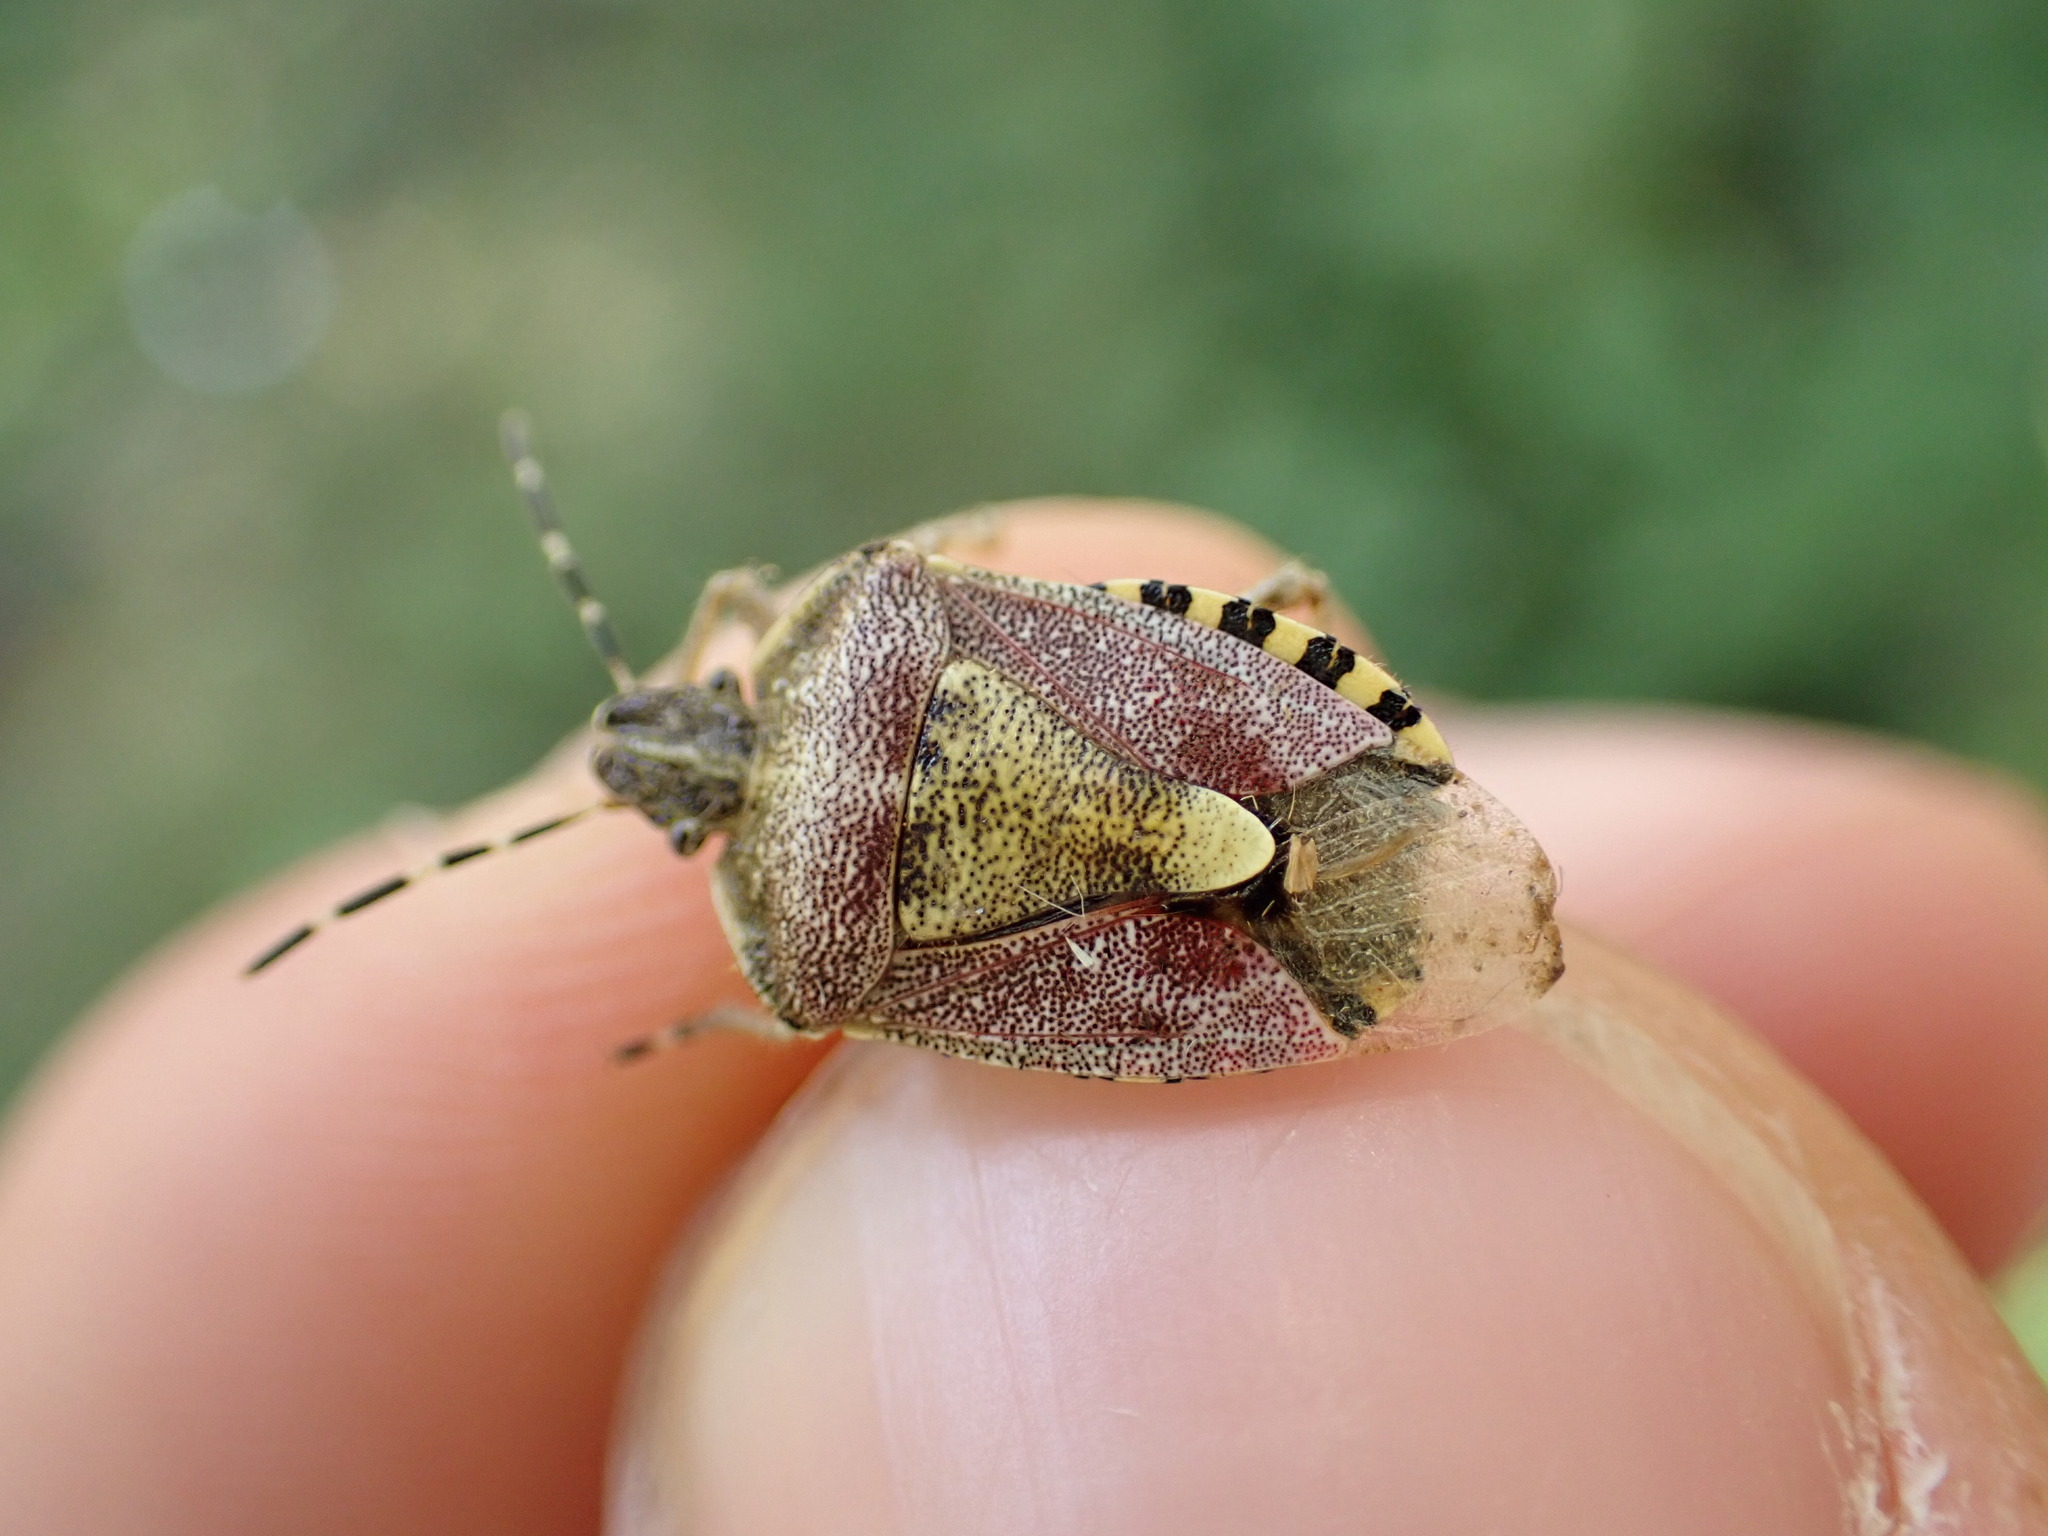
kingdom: Animalia
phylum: Arthropoda
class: Insecta
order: Hemiptera
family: Pentatomidae
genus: Dolycoris
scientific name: Dolycoris baccarum
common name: Sloe bug
